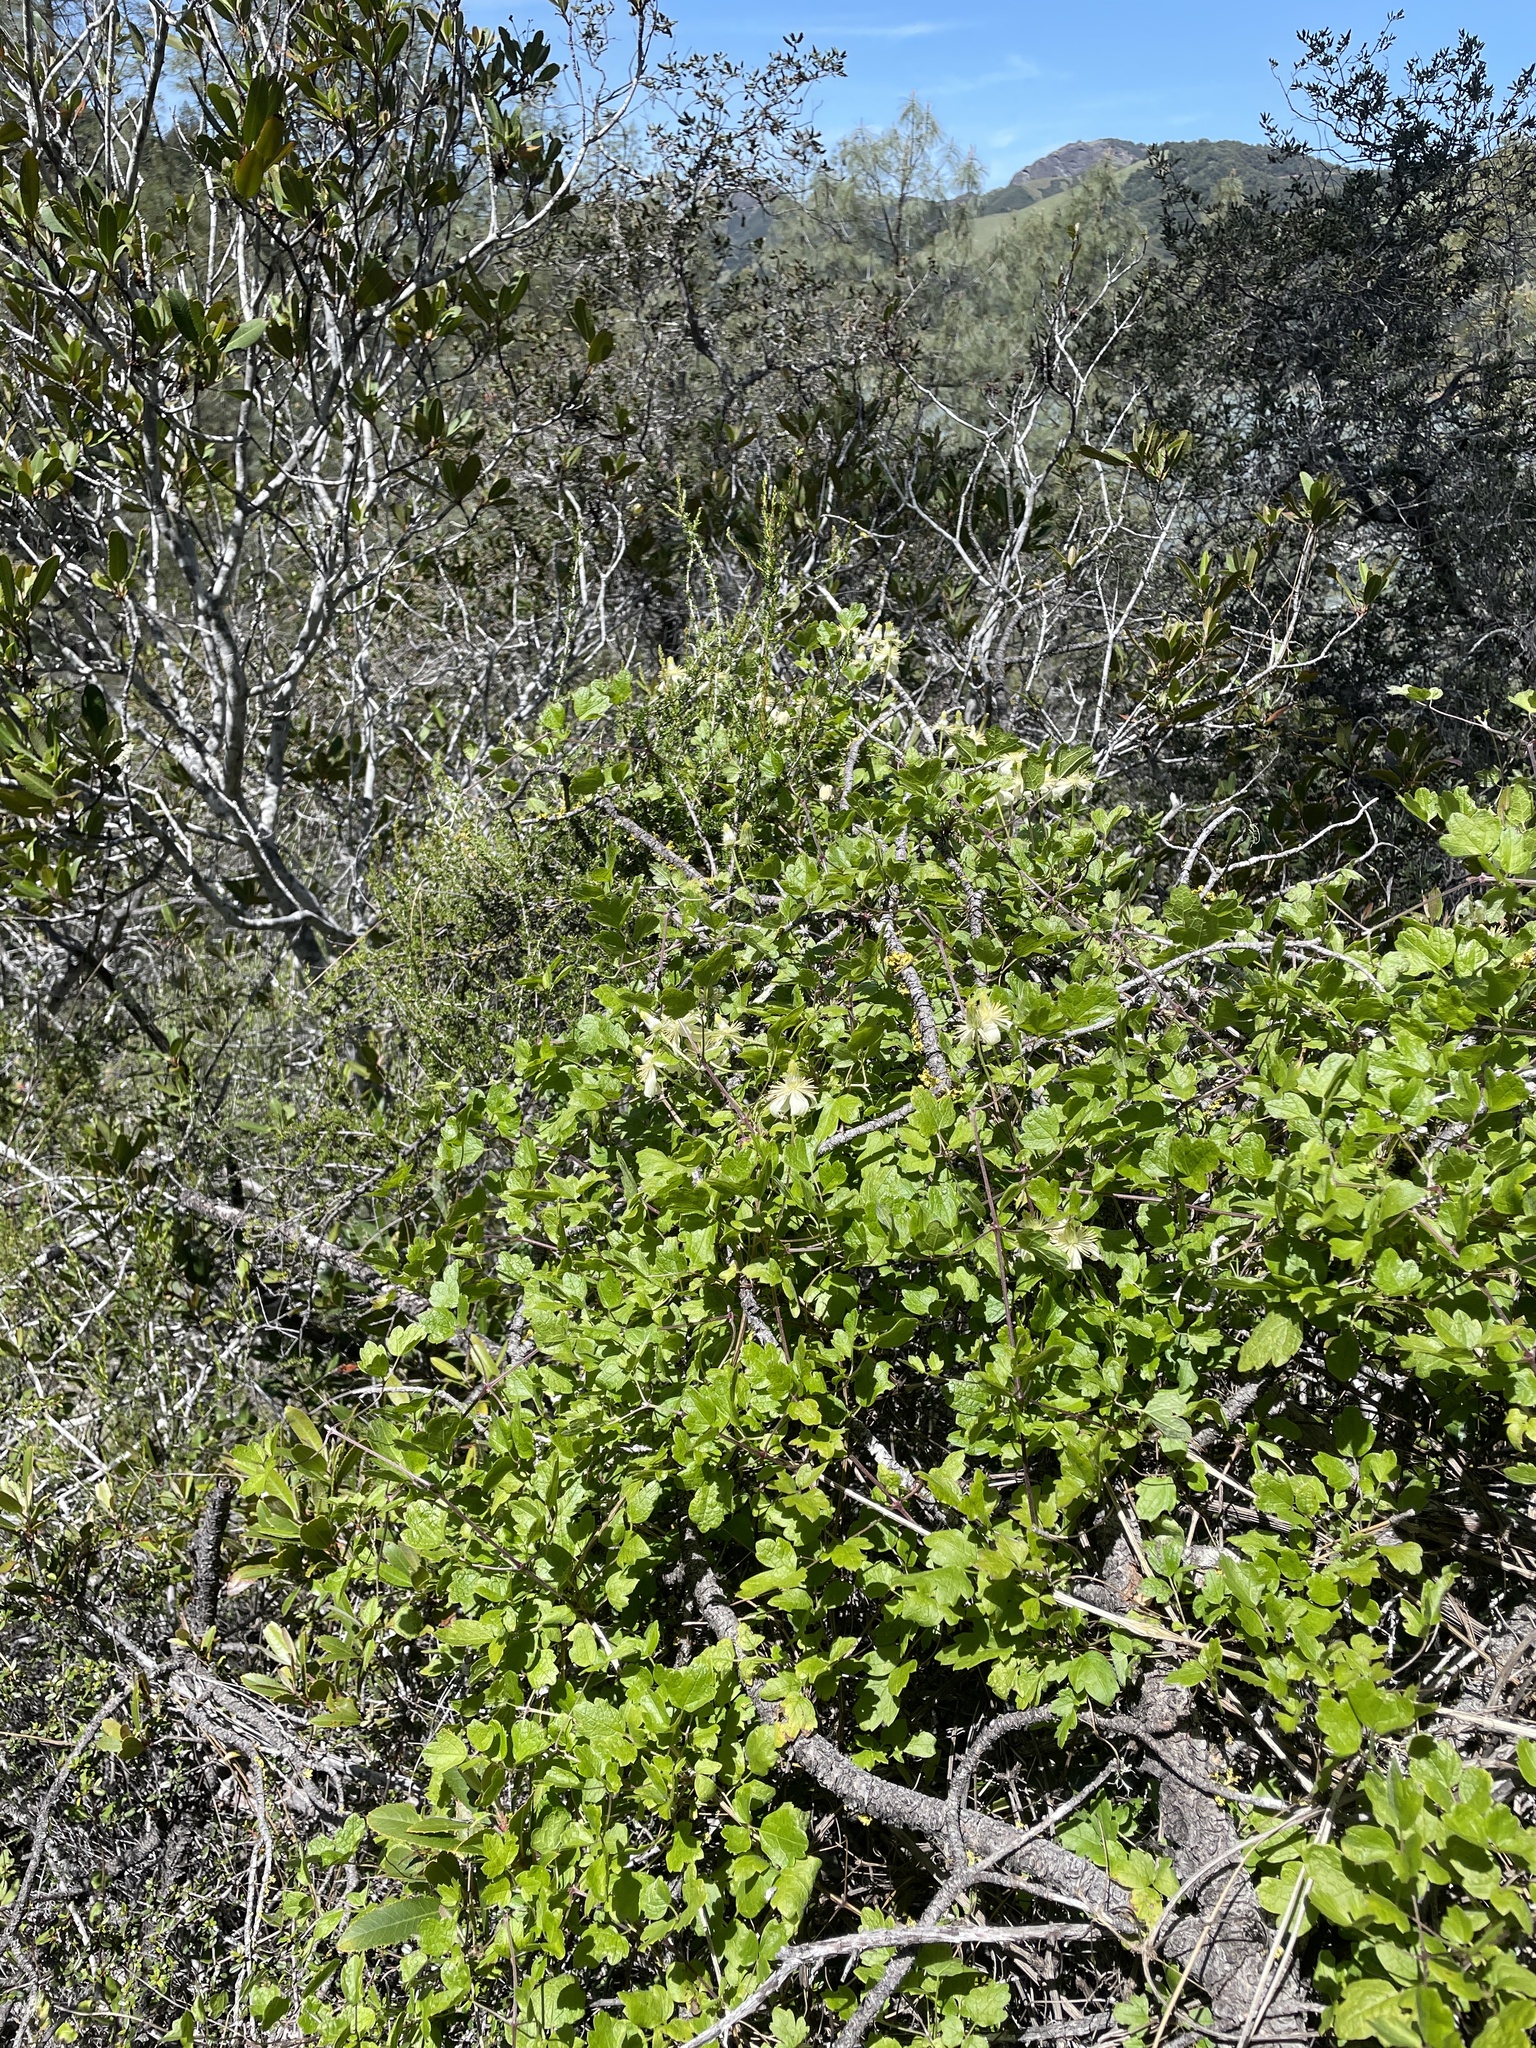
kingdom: Plantae
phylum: Tracheophyta
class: Magnoliopsida
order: Ranunculales
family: Ranunculaceae
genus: Clematis
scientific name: Clematis lasiantha
